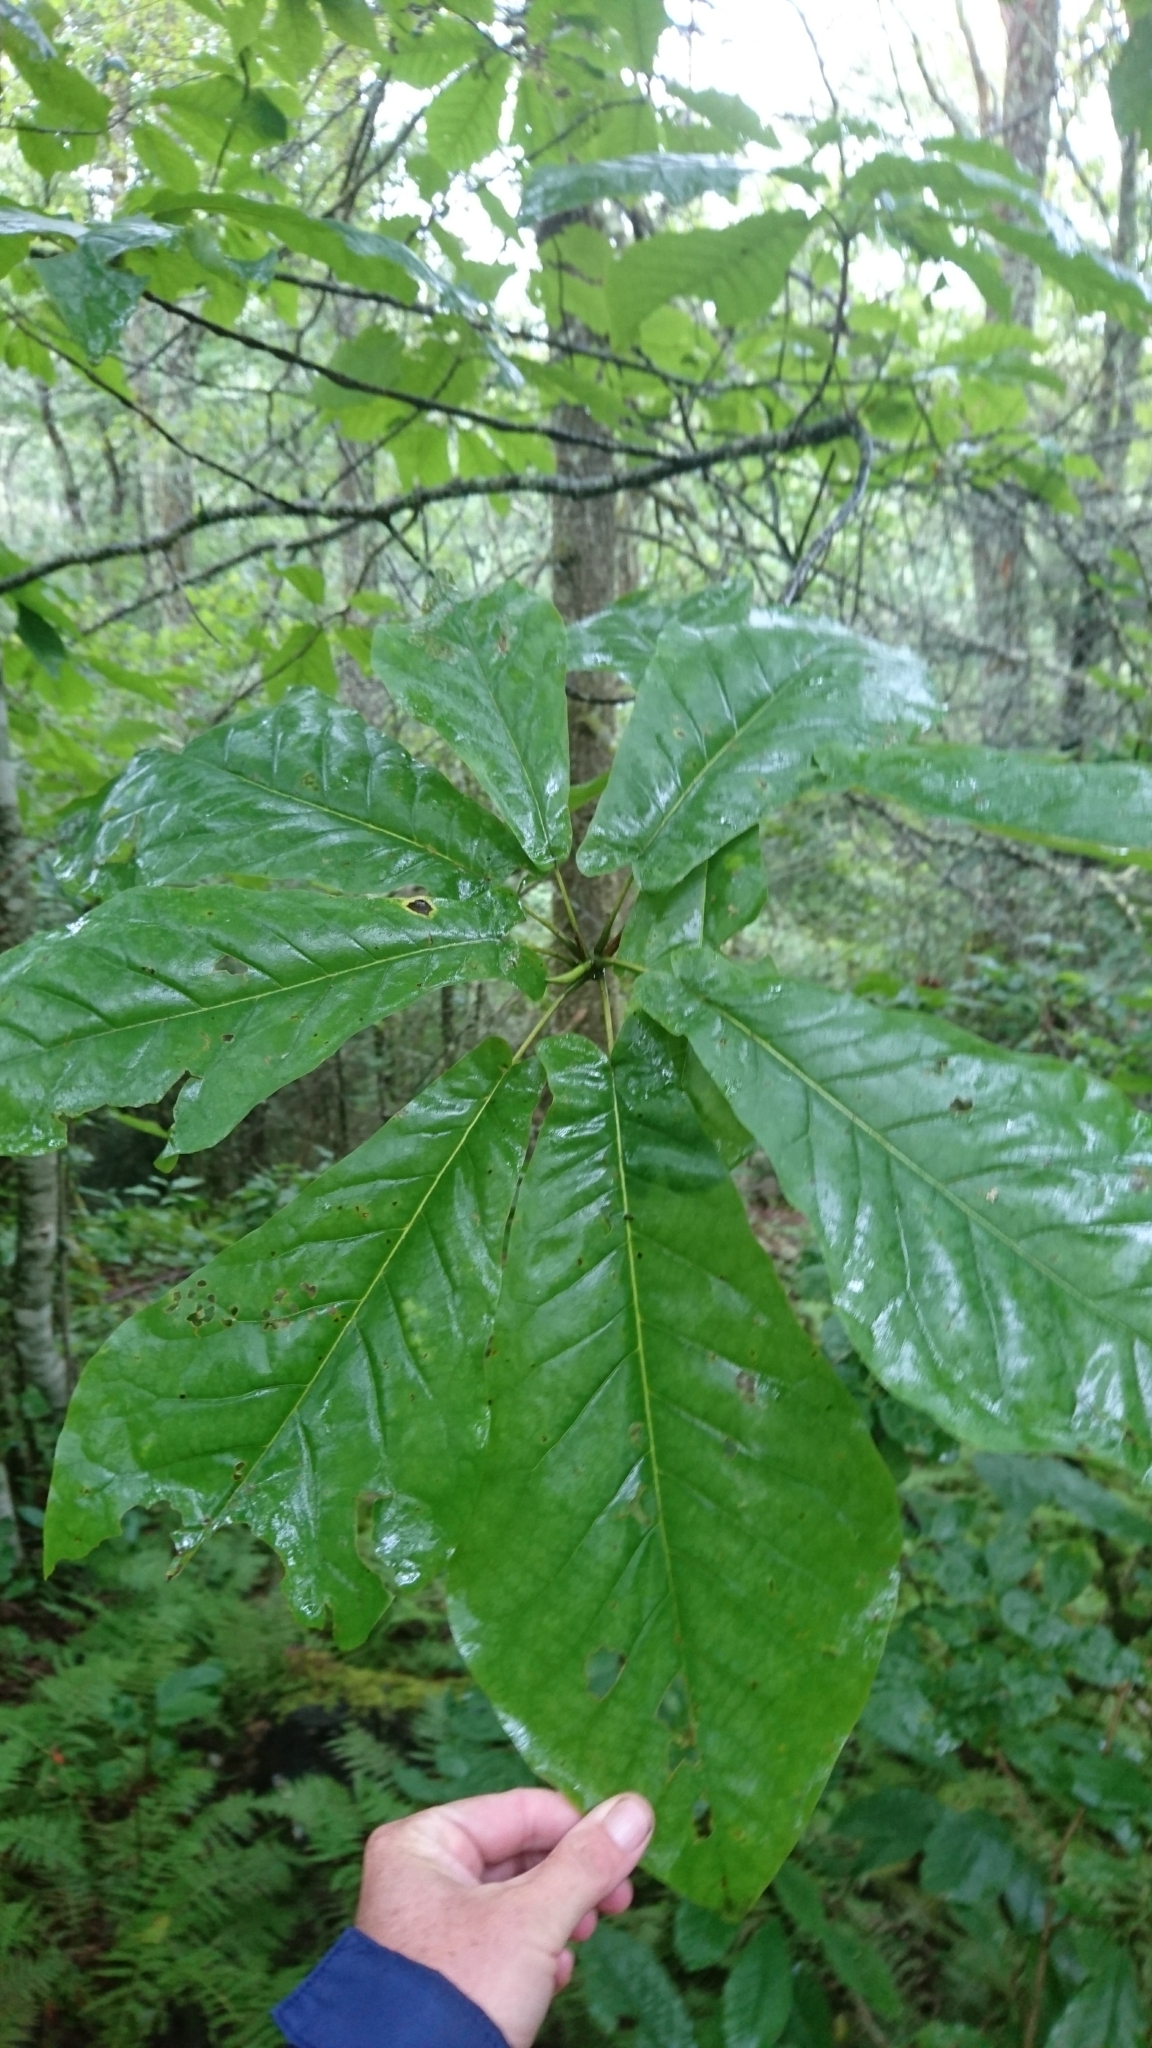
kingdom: Plantae
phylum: Tracheophyta
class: Magnoliopsida
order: Magnoliales
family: Magnoliaceae
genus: Magnolia
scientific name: Magnolia fraseri
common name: Fraser's magnolia
